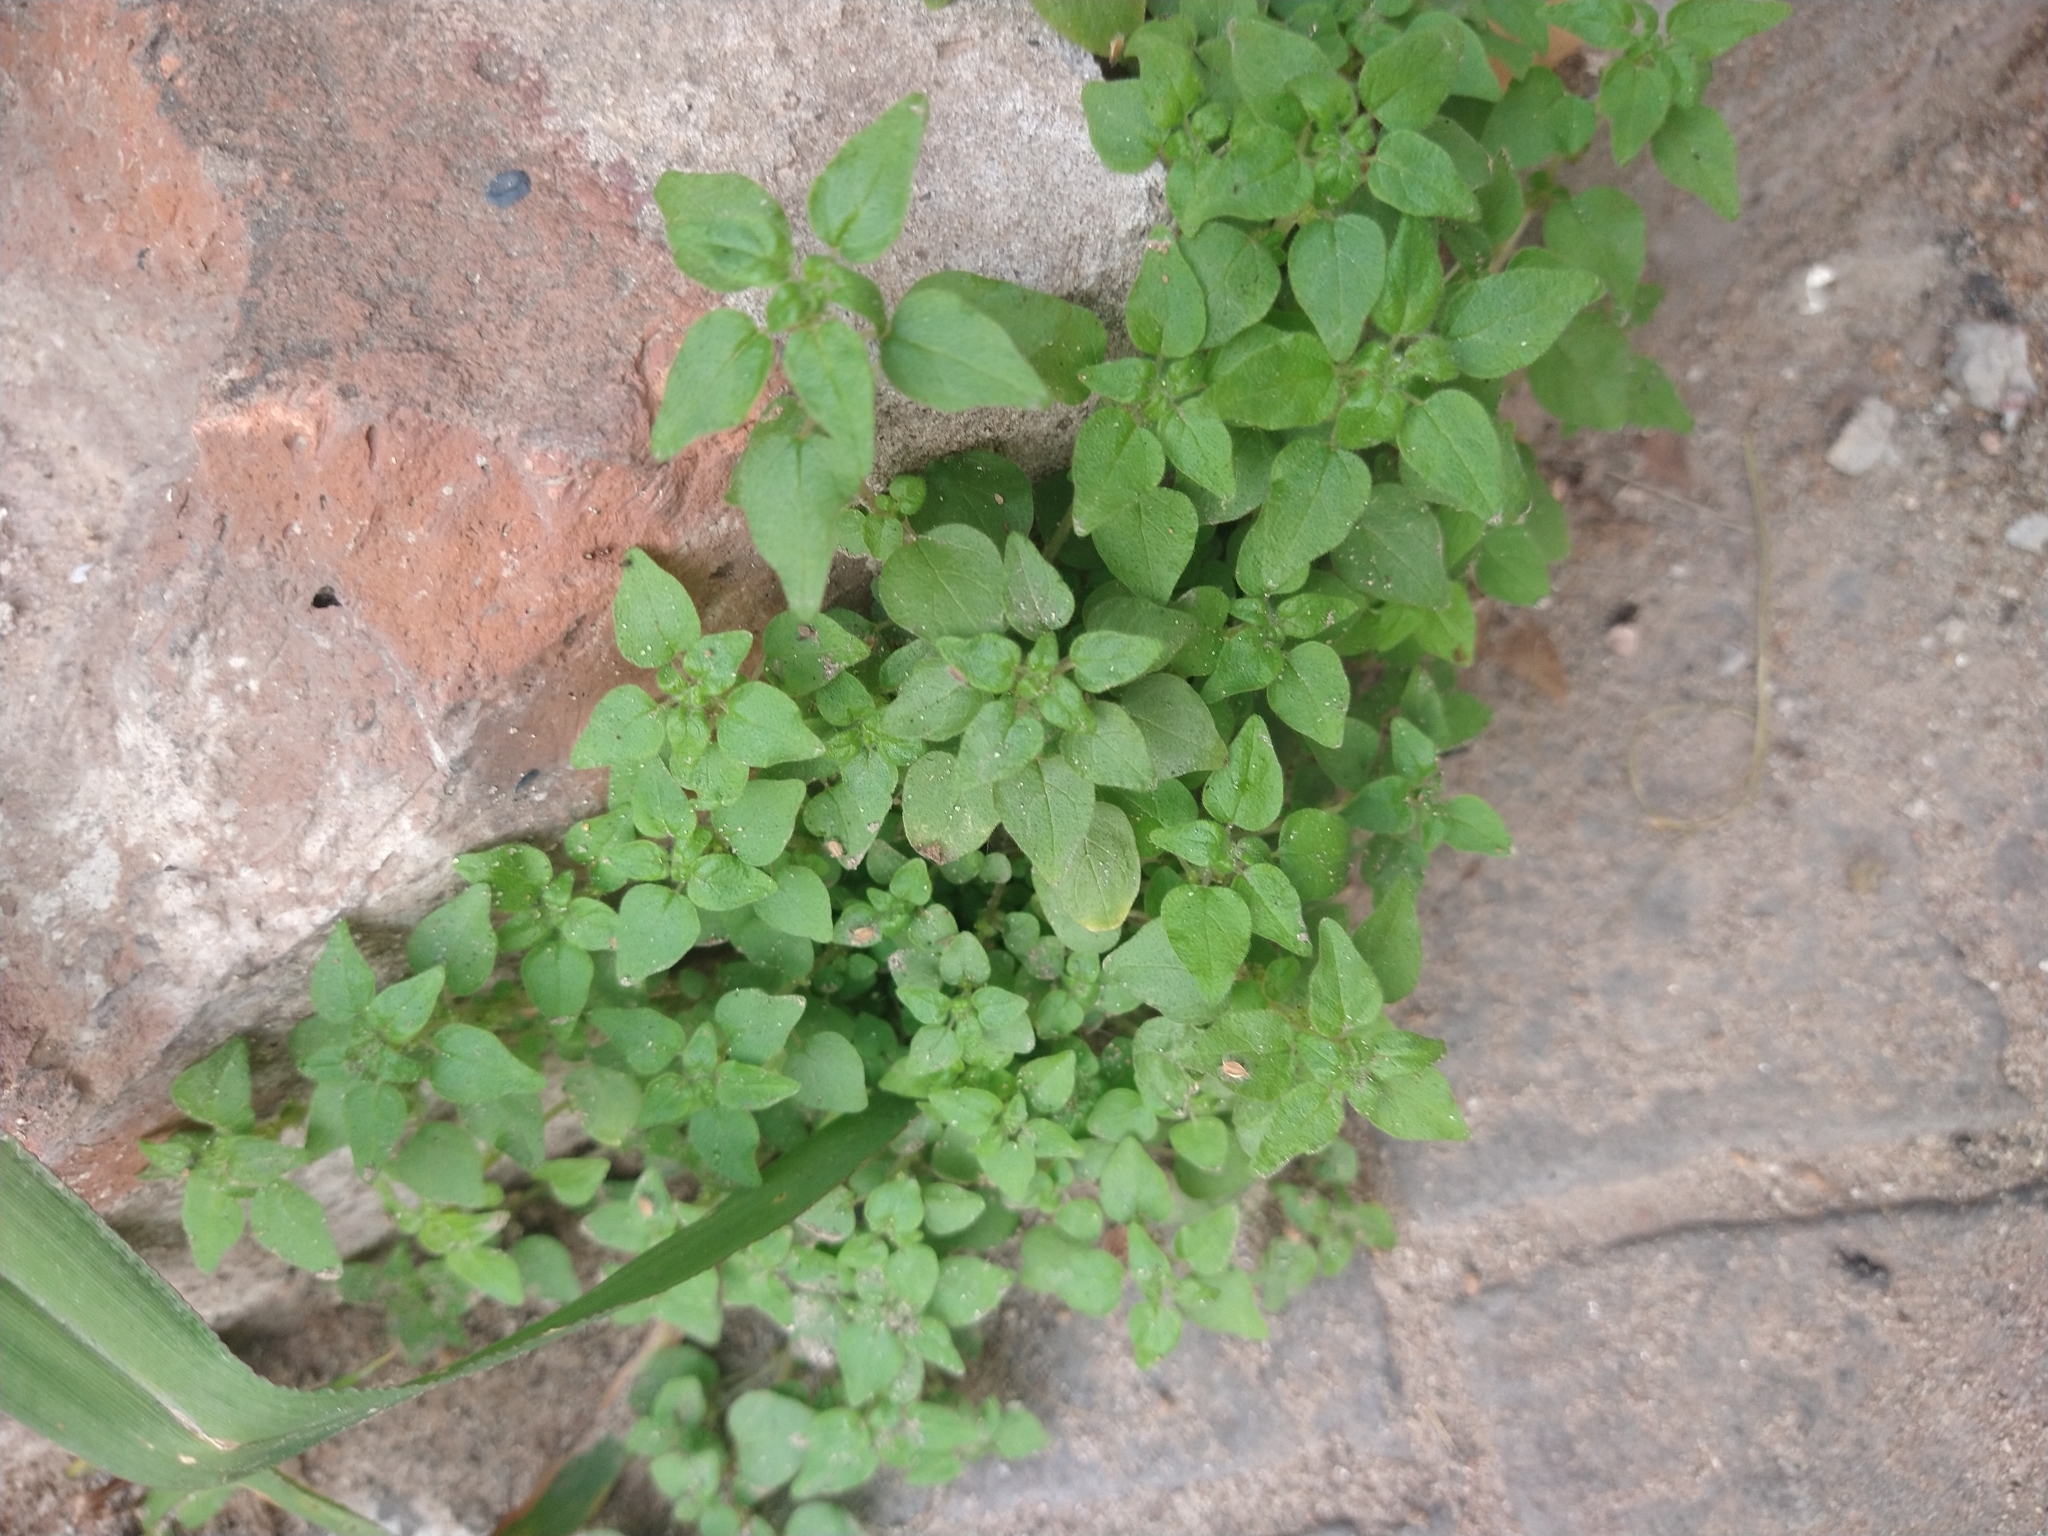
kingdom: Plantae
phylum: Tracheophyta
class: Magnoliopsida
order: Caryophyllales
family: Caryophyllaceae
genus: Stellaria
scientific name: Stellaria media
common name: Common chickweed
